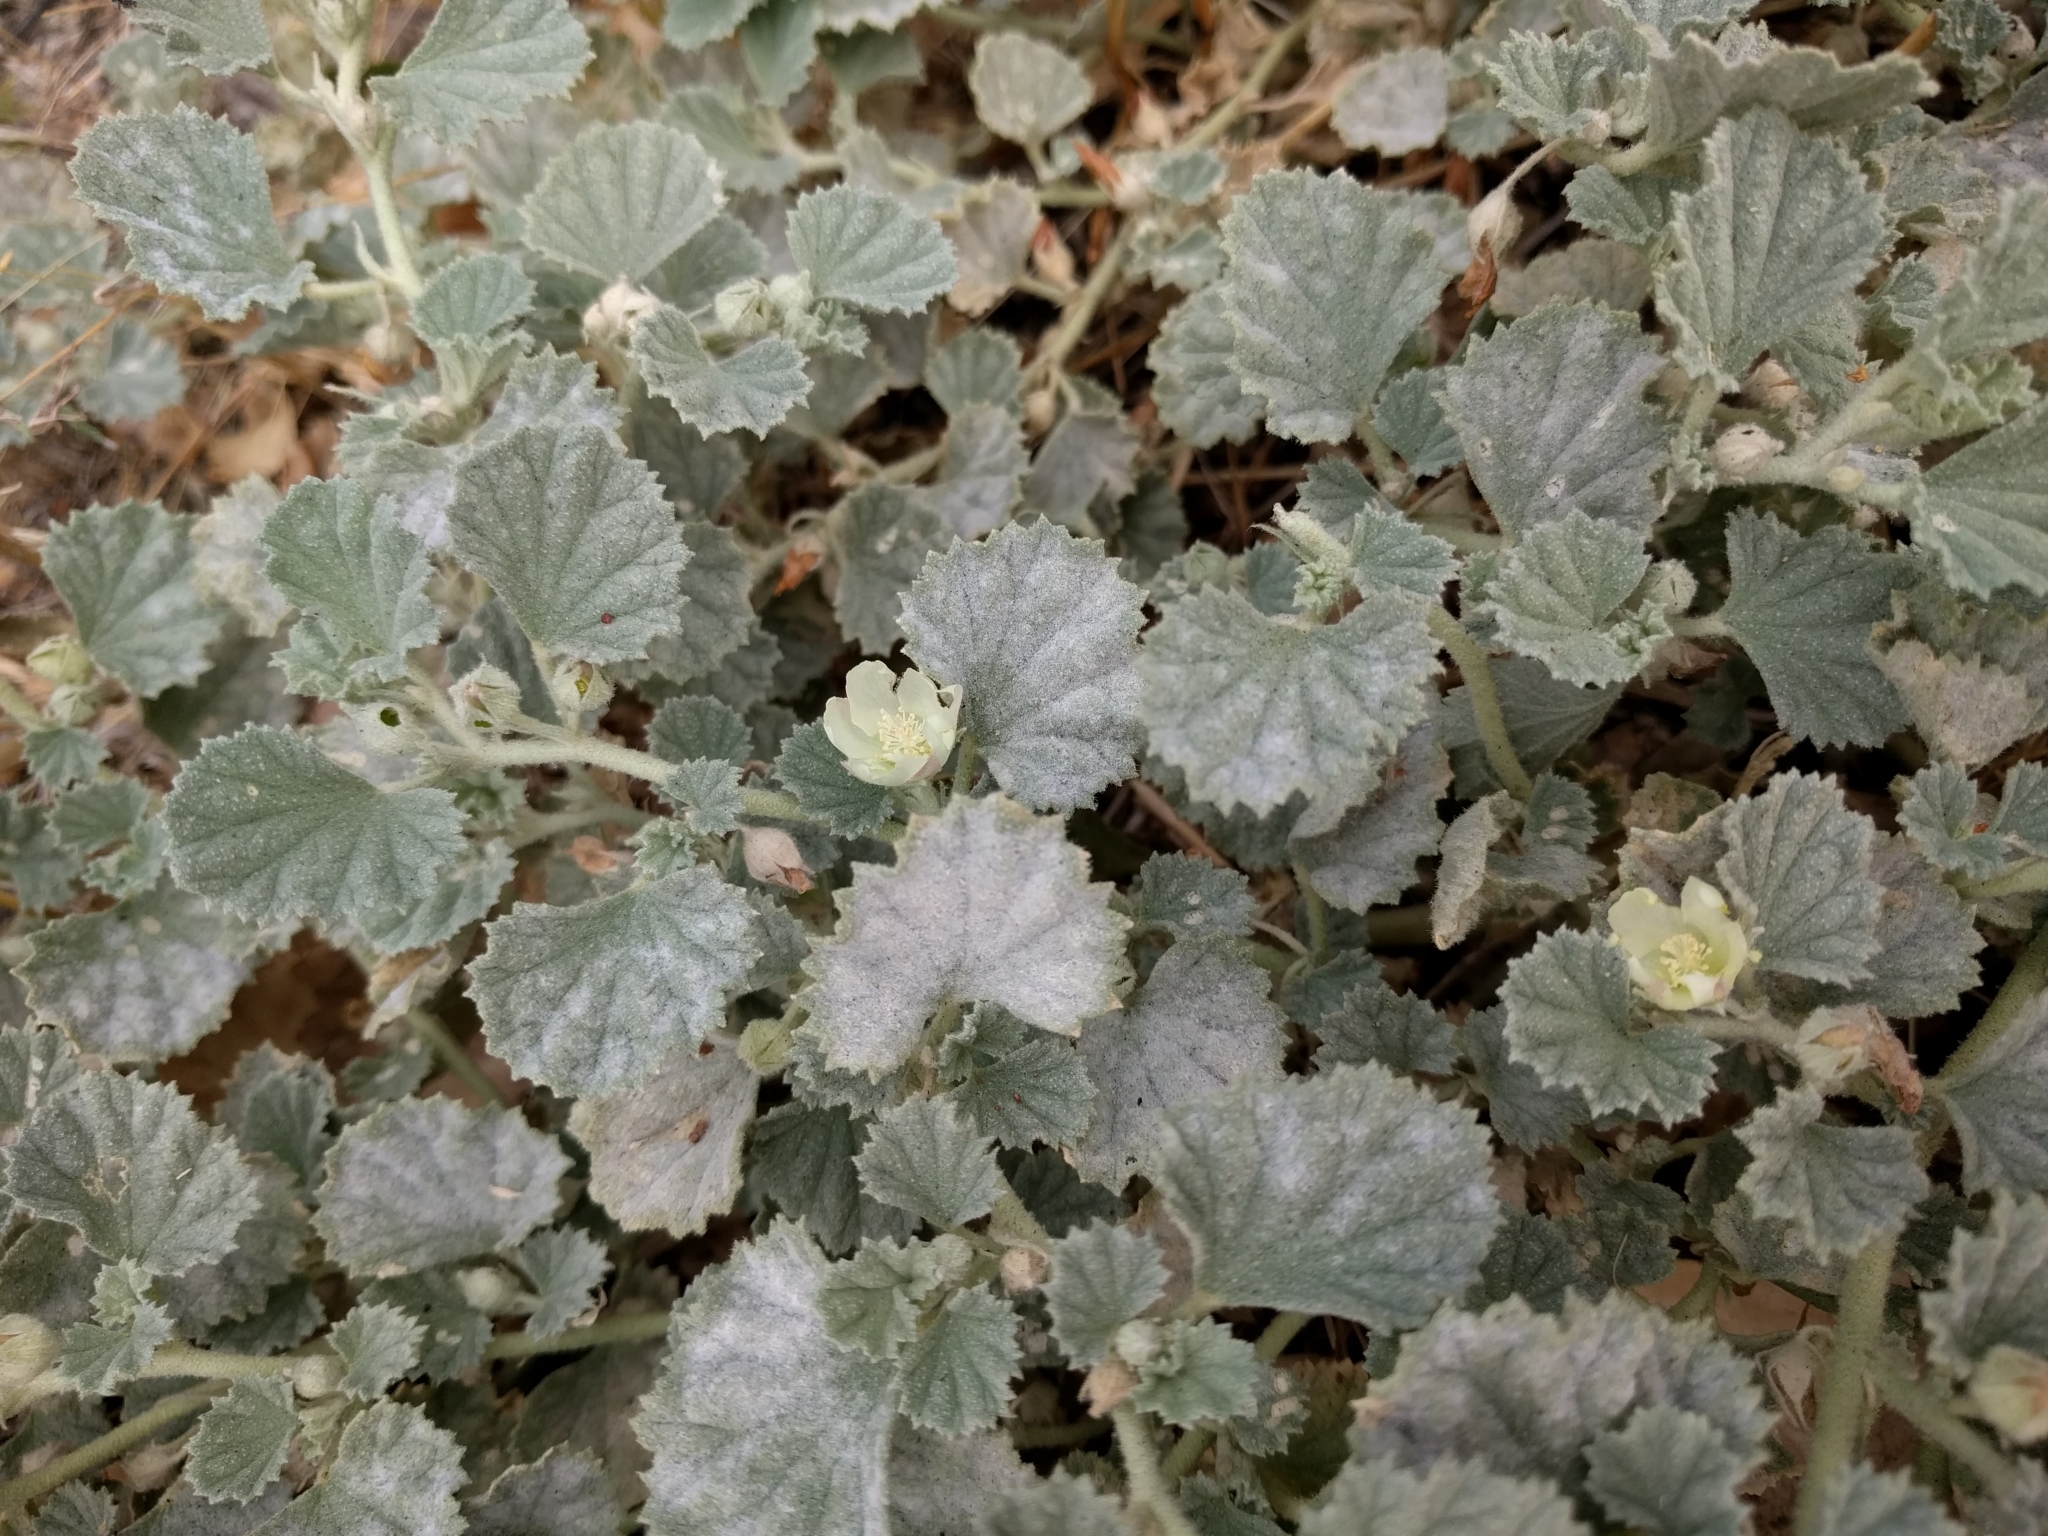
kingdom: Plantae
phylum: Tracheophyta
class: Magnoliopsida
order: Malvales
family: Malvaceae
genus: Malvella
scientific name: Malvella leprosa
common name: Alkali-mallow
